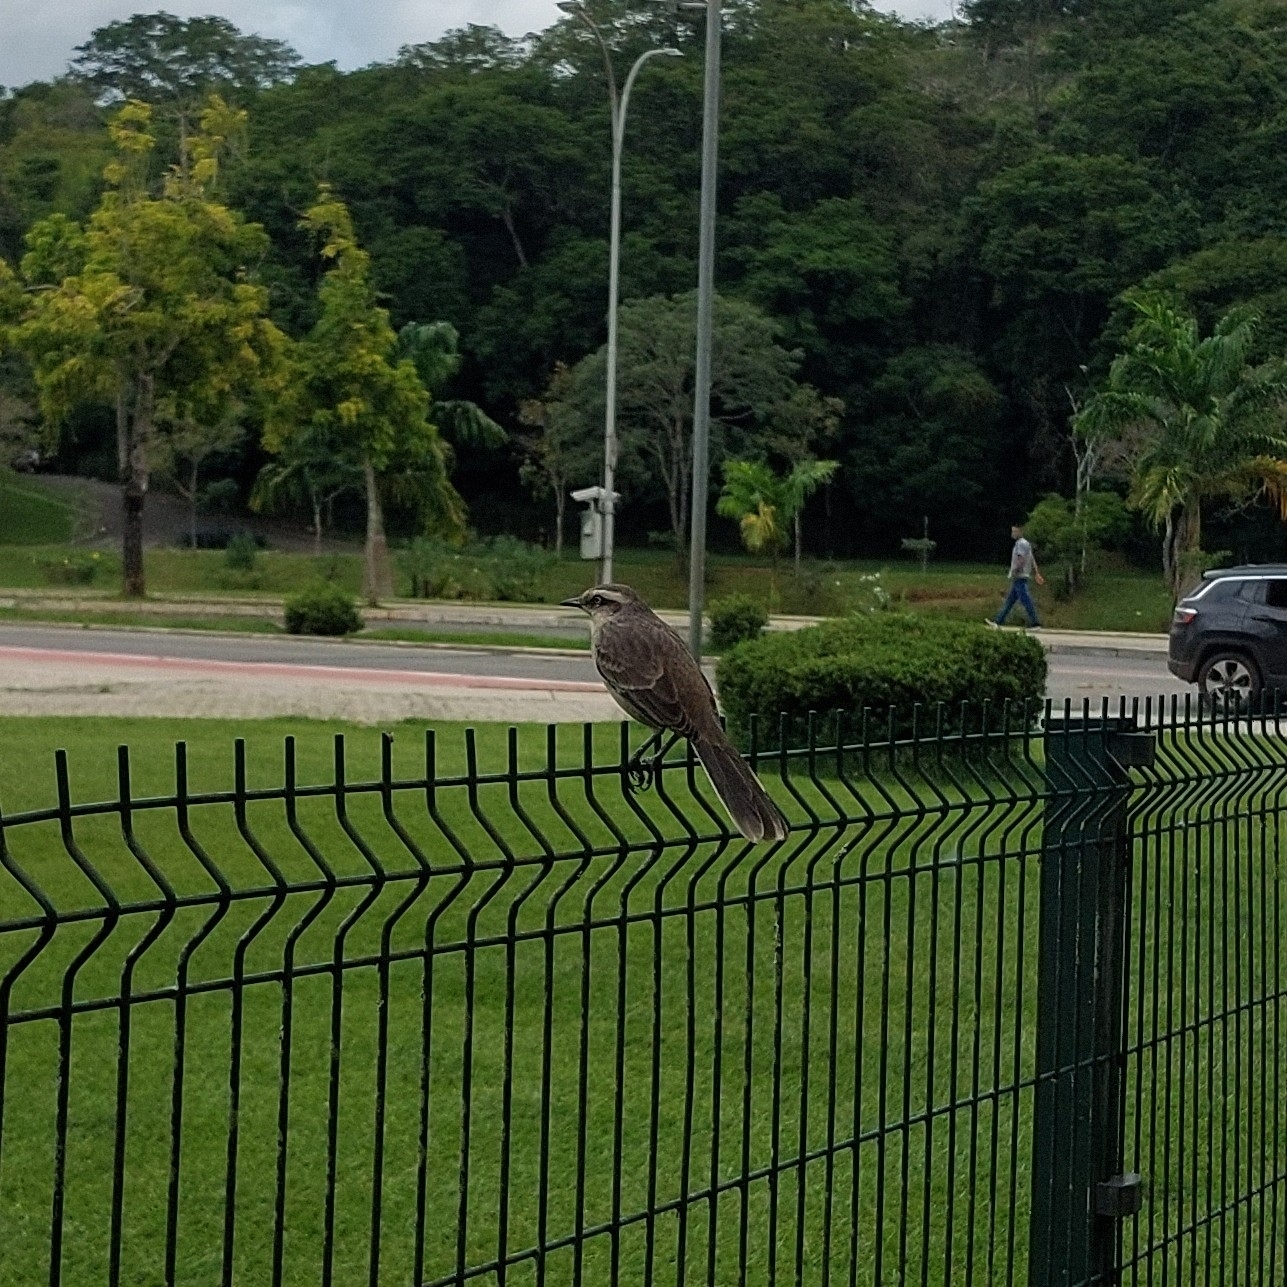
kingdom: Animalia
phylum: Chordata
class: Aves
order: Passeriformes
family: Mimidae
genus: Mimus
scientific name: Mimus saturninus
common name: Chalk-browed mockingbird
